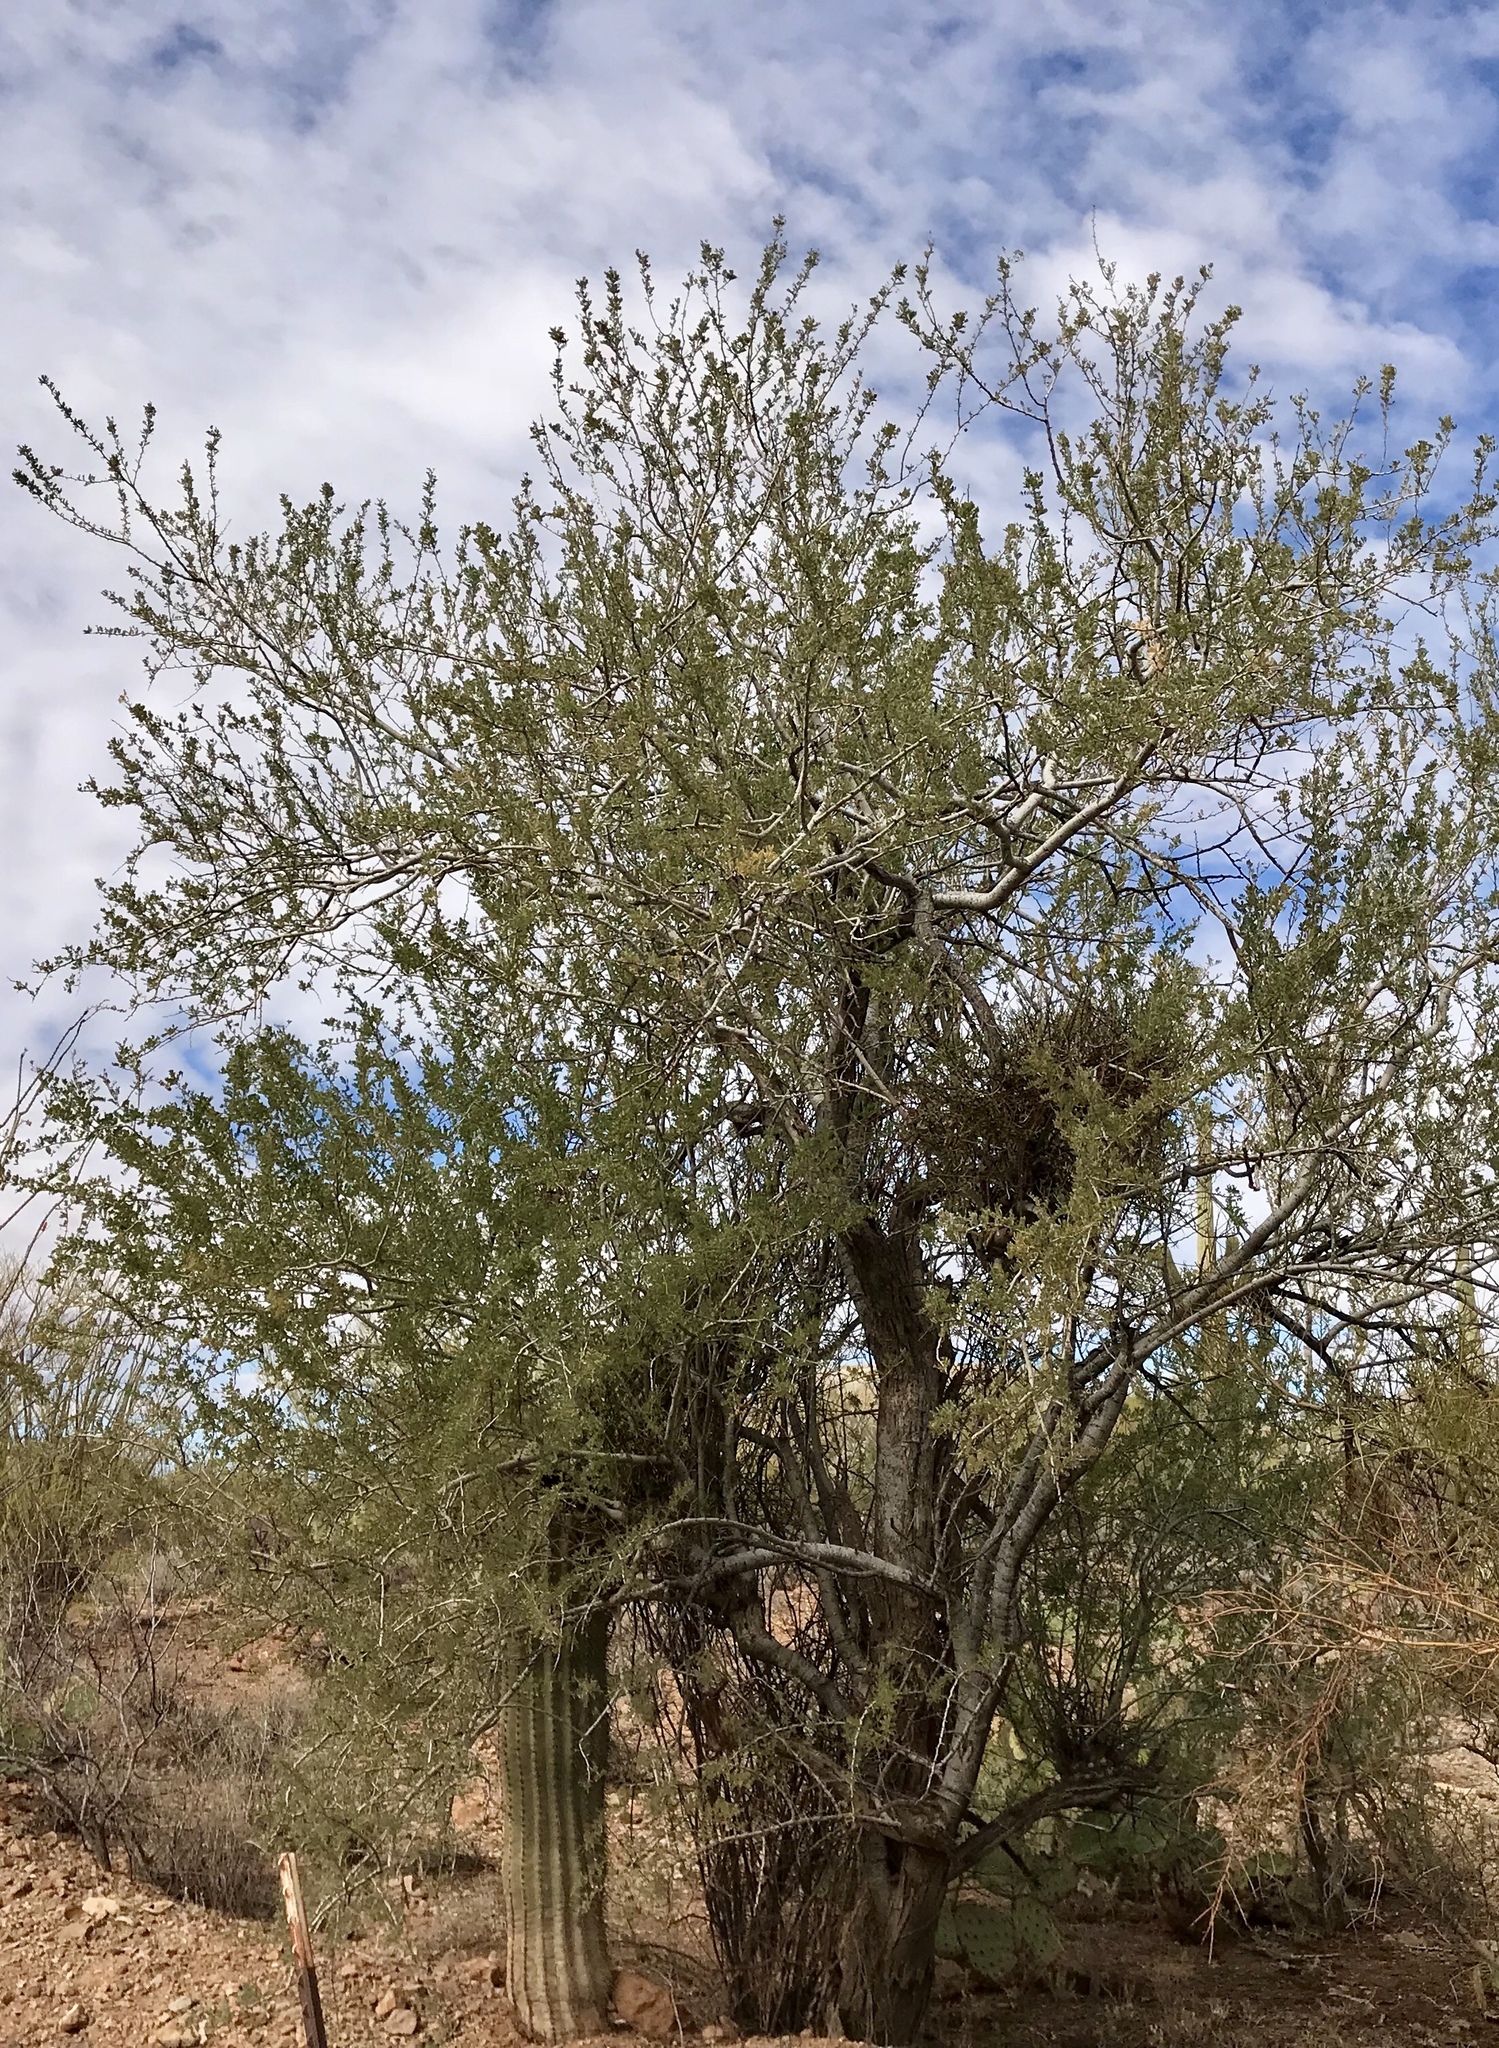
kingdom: Plantae
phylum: Tracheophyta
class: Magnoliopsida
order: Fabales
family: Fabaceae
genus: Olneya
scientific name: Olneya tesota
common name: Desert ironwood
